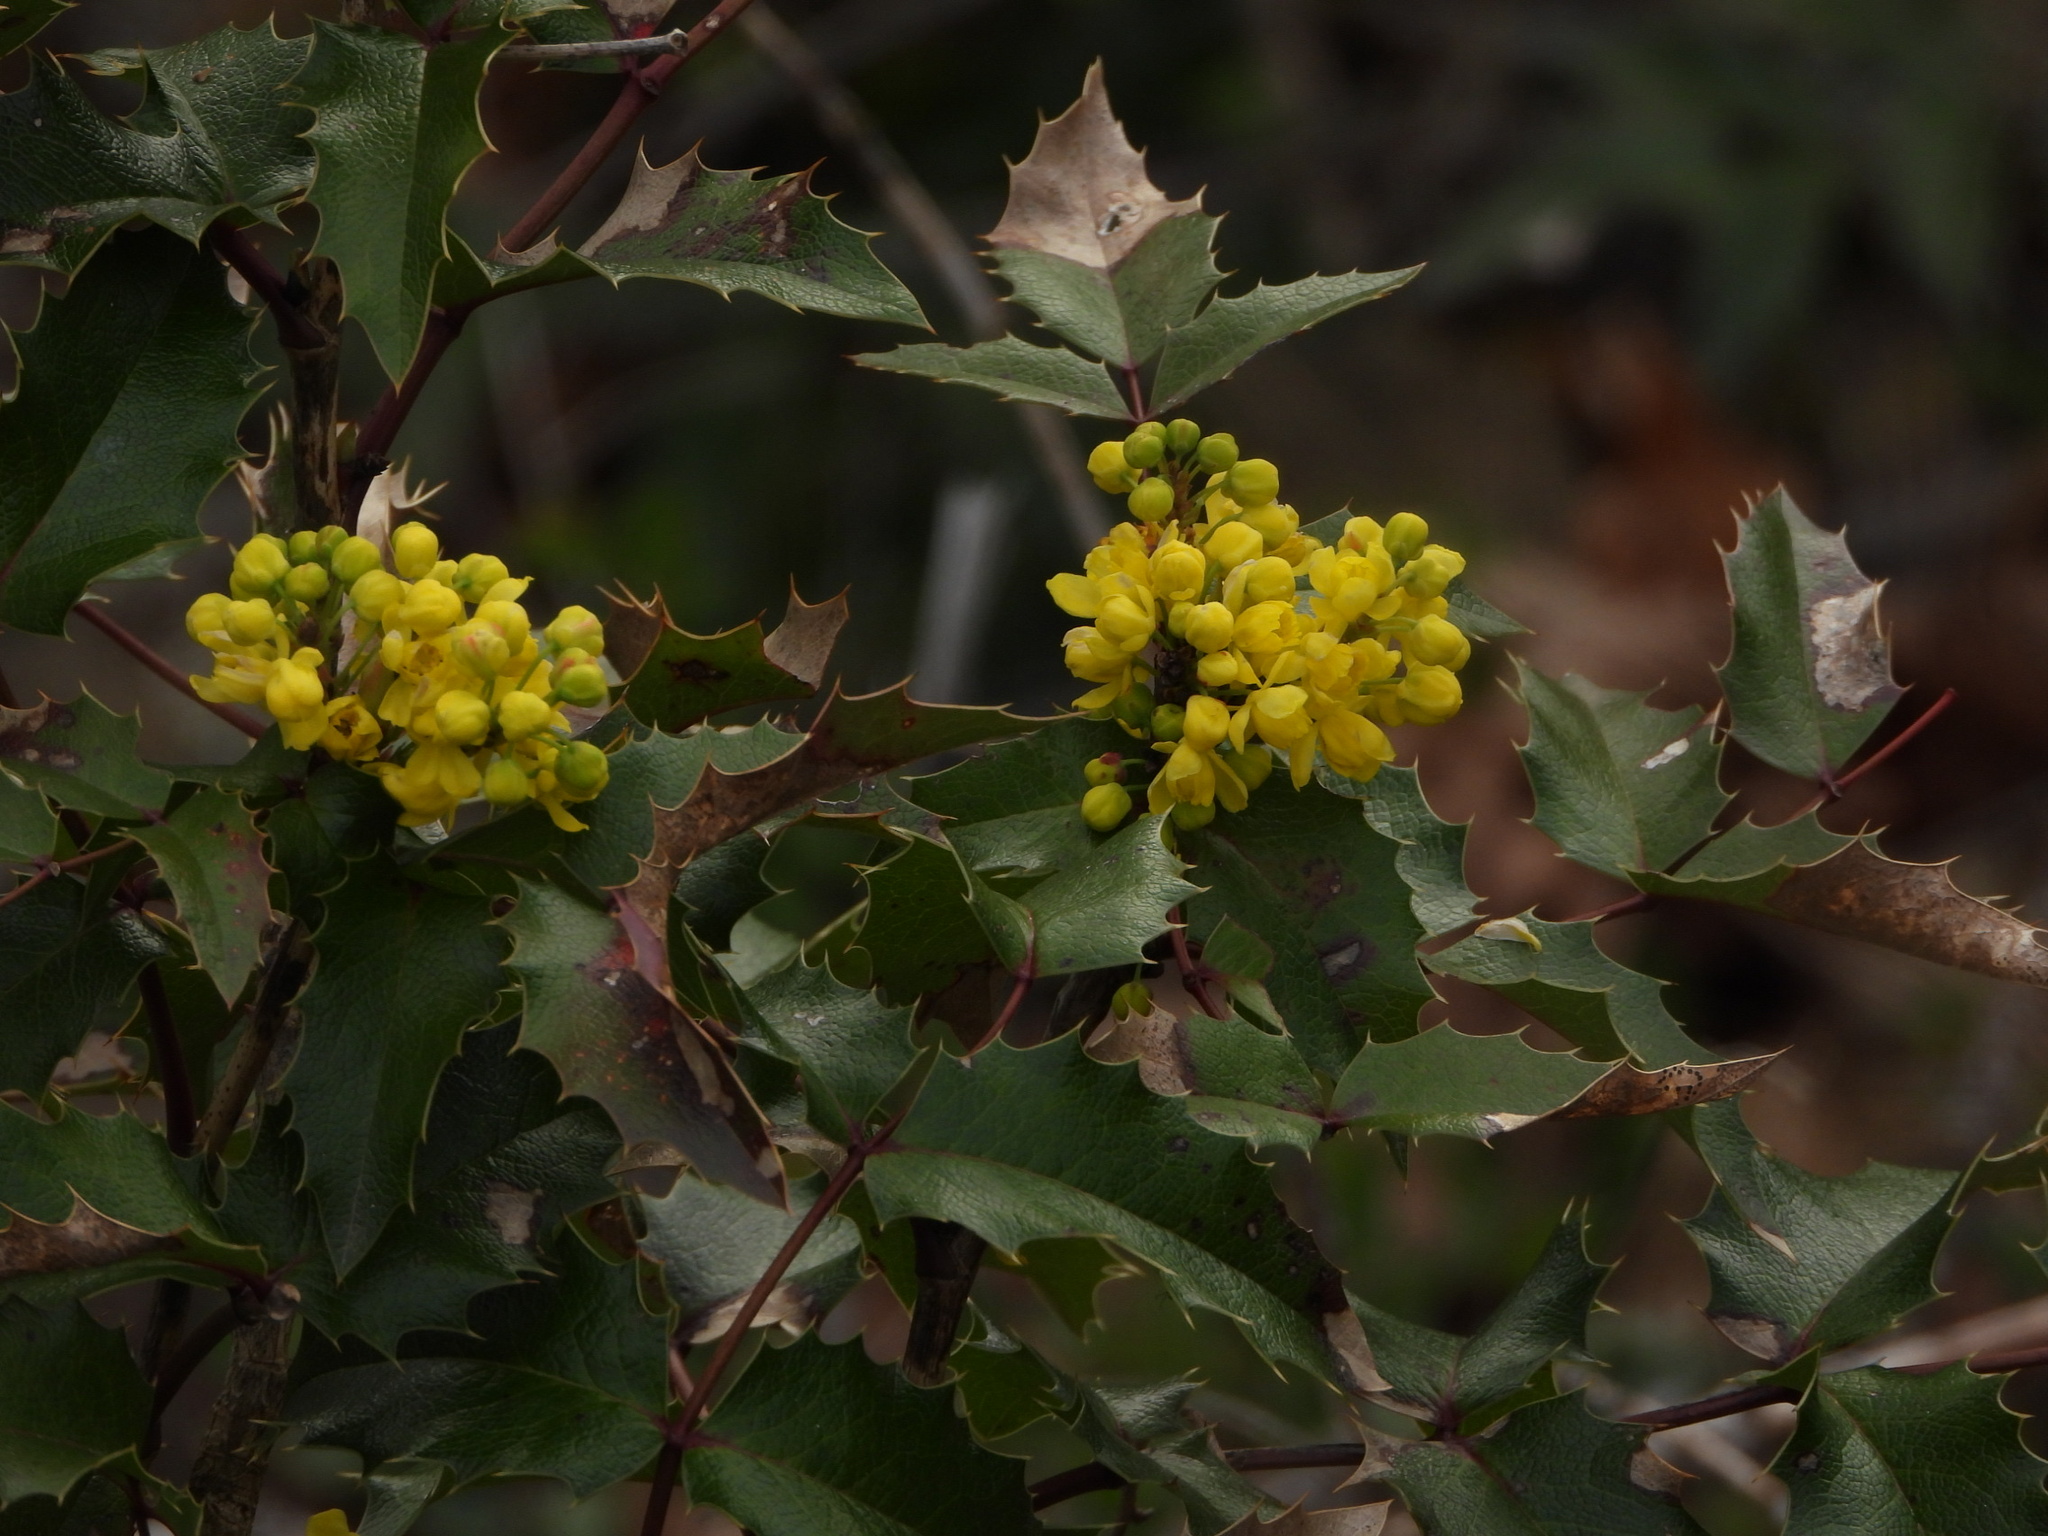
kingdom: Plantae
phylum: Tracheophyta
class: Magnoliopsida
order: Ranunculales
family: Berberidaceae
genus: Mahonia
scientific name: Mahonia aquifolium
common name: Oregon-grape
